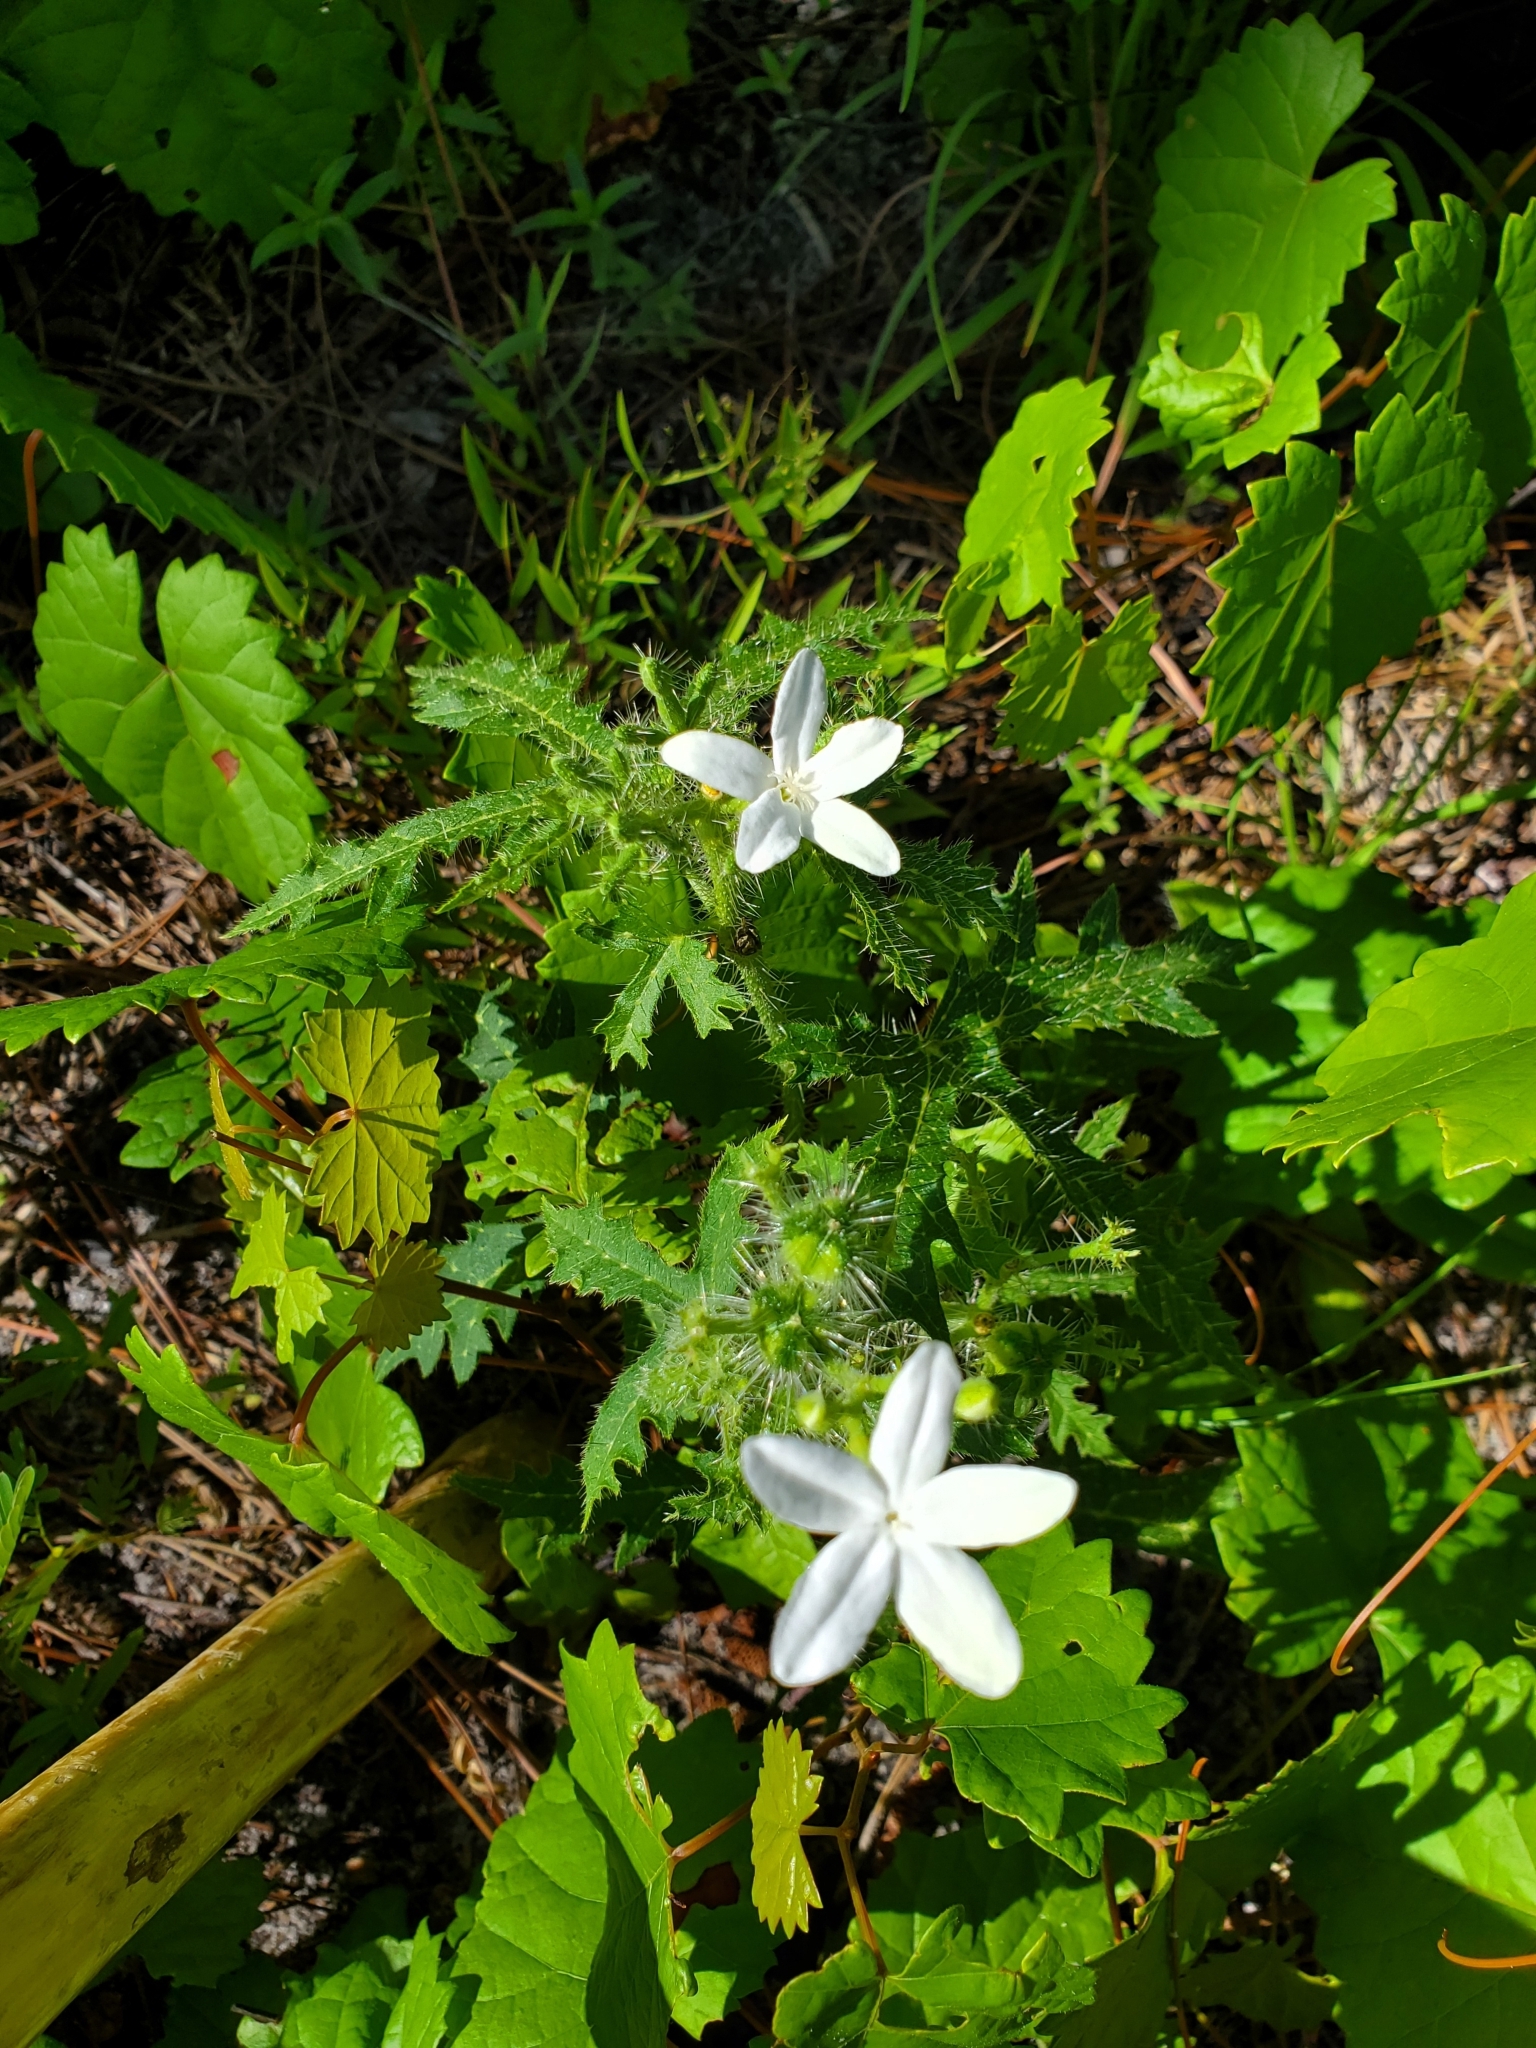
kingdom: Plantae
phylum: Tracheophyta
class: Magnoliopsida
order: Malpighiales
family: Euphorbiaceae
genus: Cnidoscolus
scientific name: Cnidoscolus stimulosus
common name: Bull-nettle
